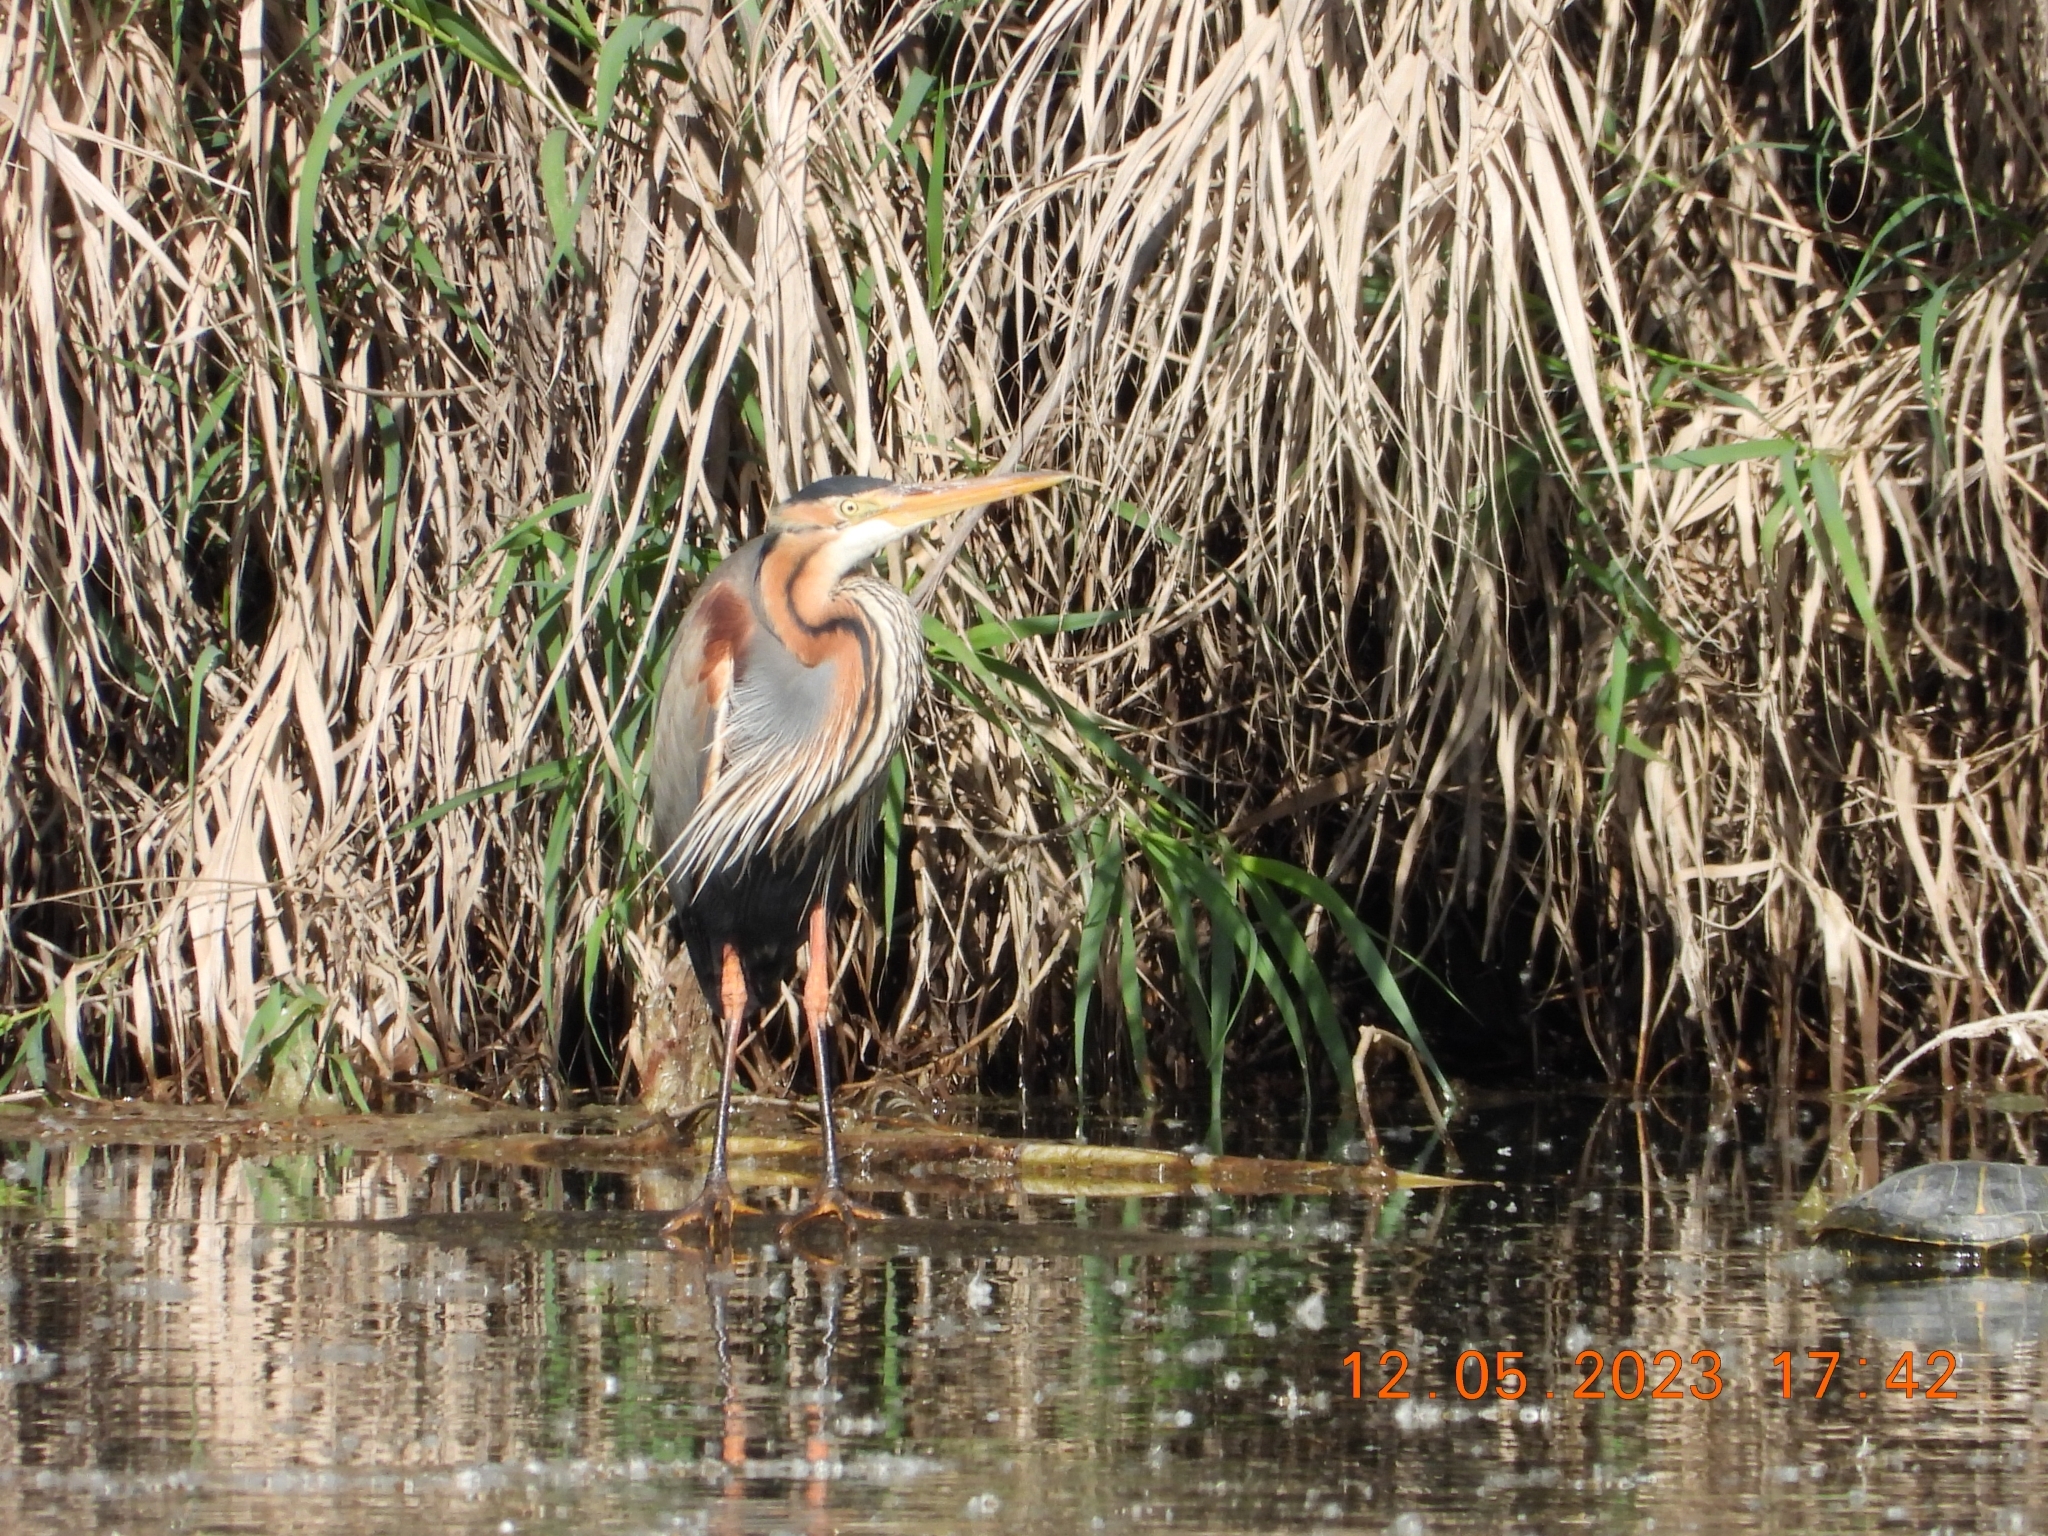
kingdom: Animalia
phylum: Chordata
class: Aves
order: Pelecaniformes
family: Ardeidae
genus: Ardea
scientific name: Ardea purpurea
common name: Purple heron
